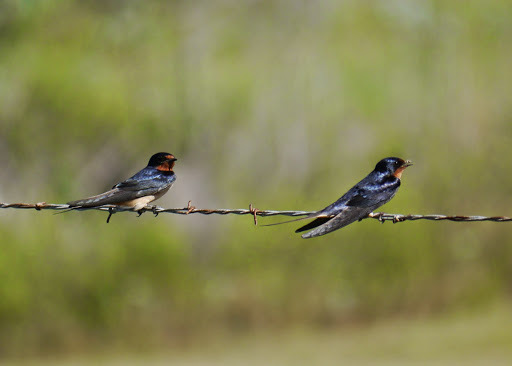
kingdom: Animalia
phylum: Chordata
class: Aves
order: Passeriformes
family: Hirundinidae
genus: Hirundo
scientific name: Hirundo rustica
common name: Barn swallow
